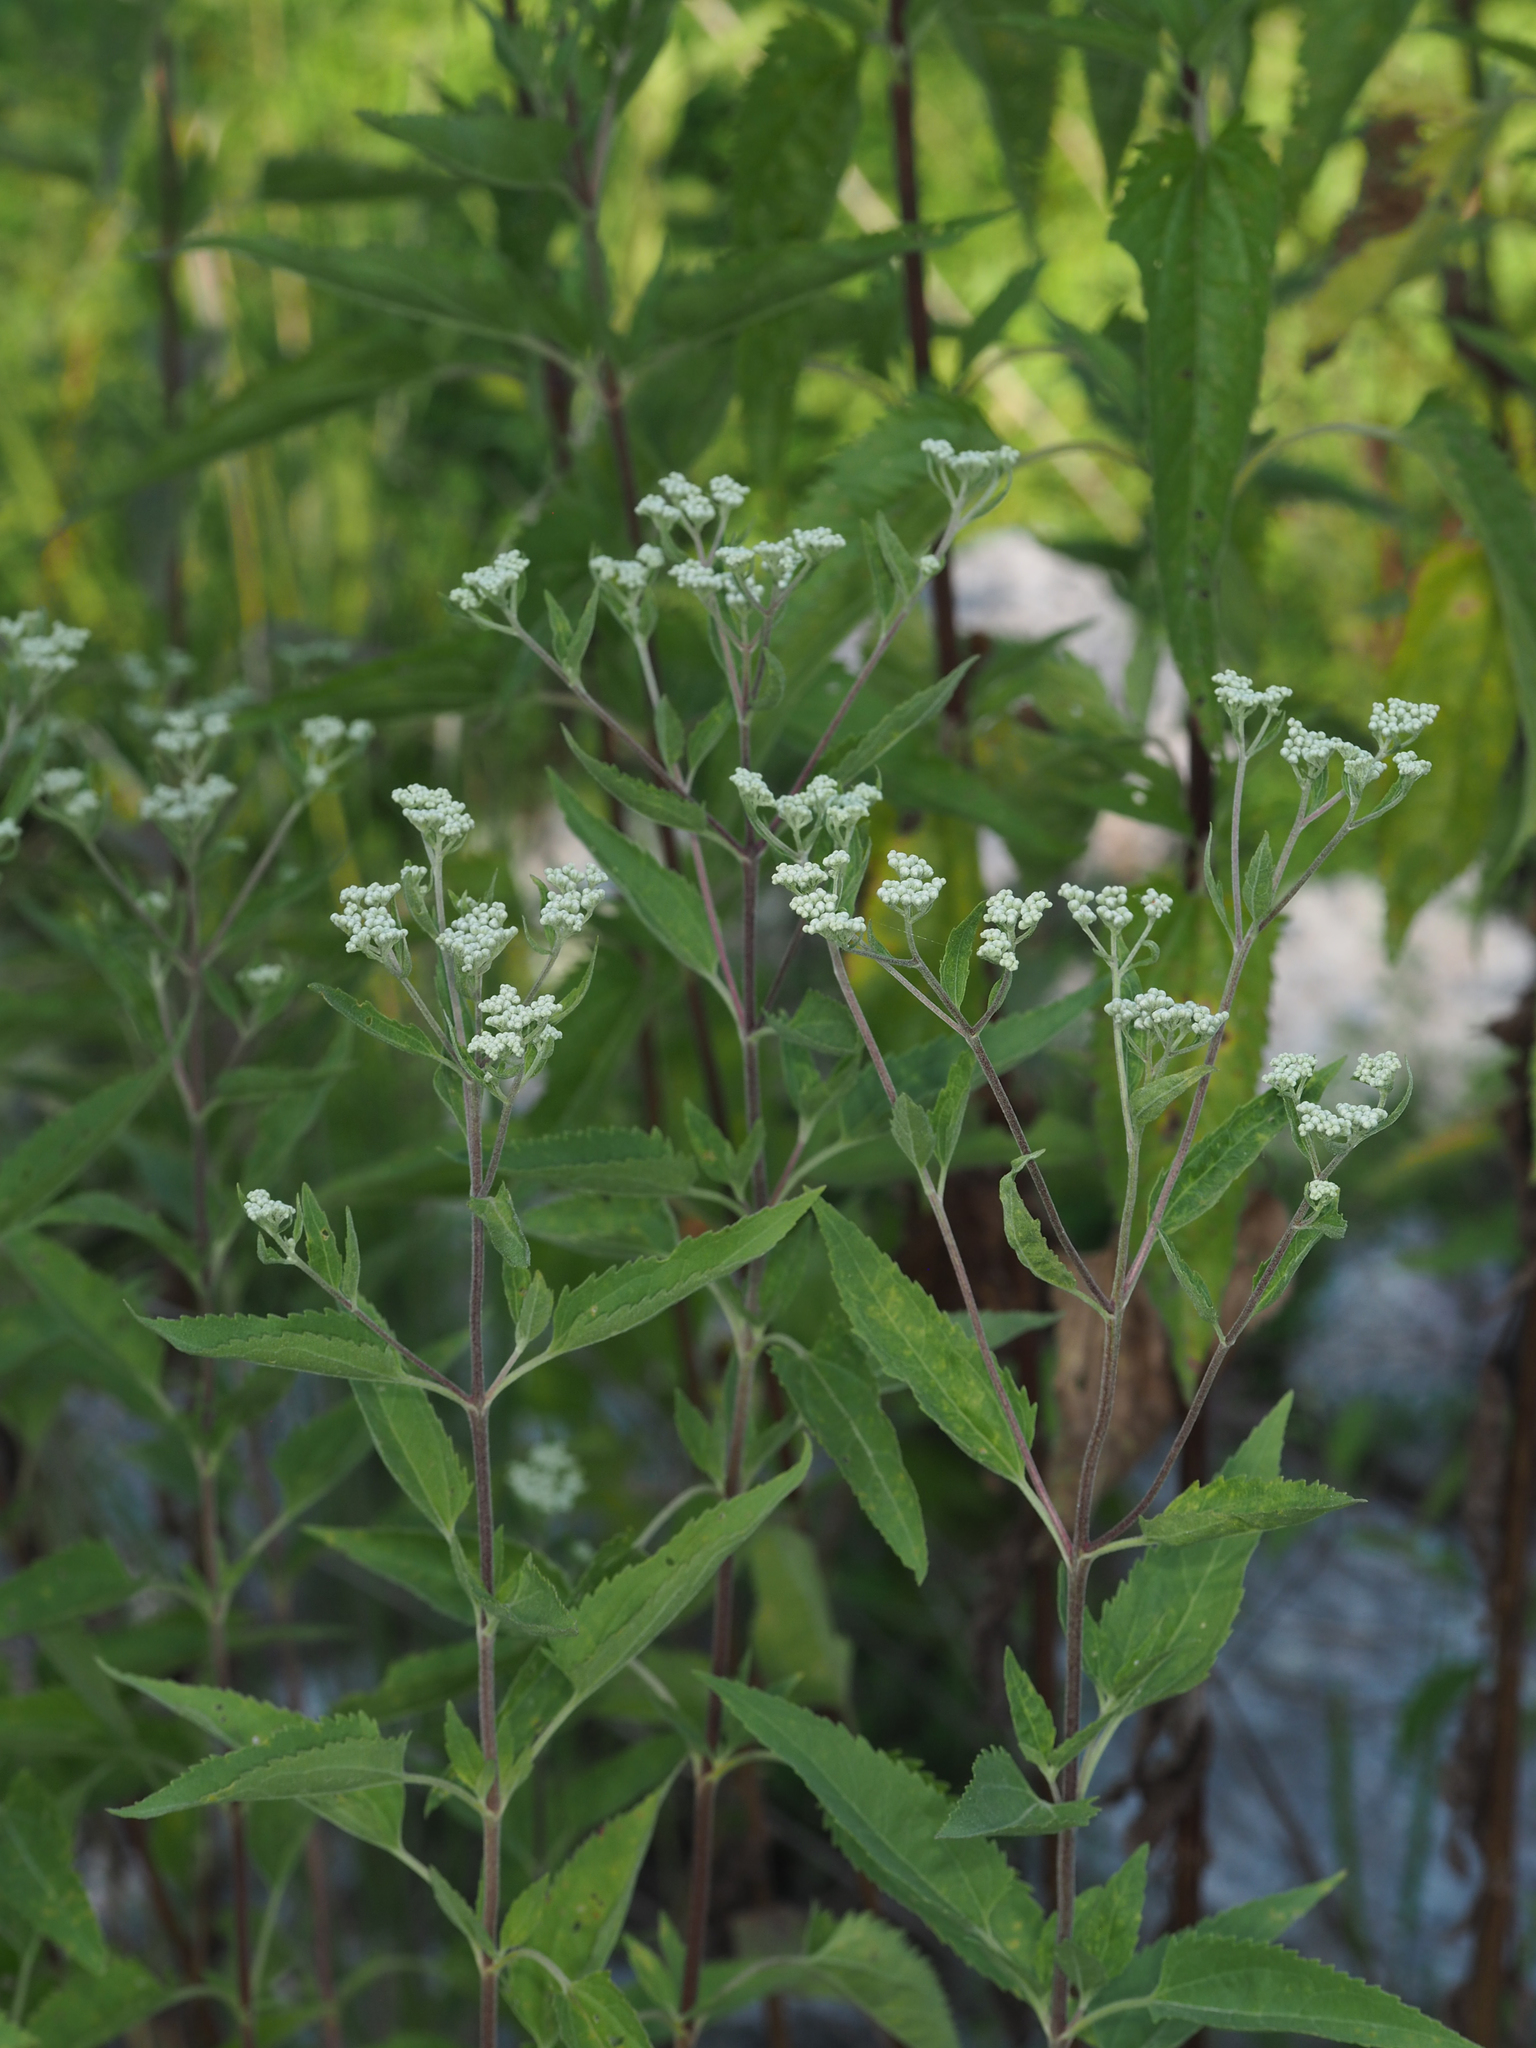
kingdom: Plantae
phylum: Tracheophyta
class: Magnoliopsida
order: Asterales
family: Asteraceae
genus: Eupatorium
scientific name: Eupatorium serotinum
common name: Late boneset
